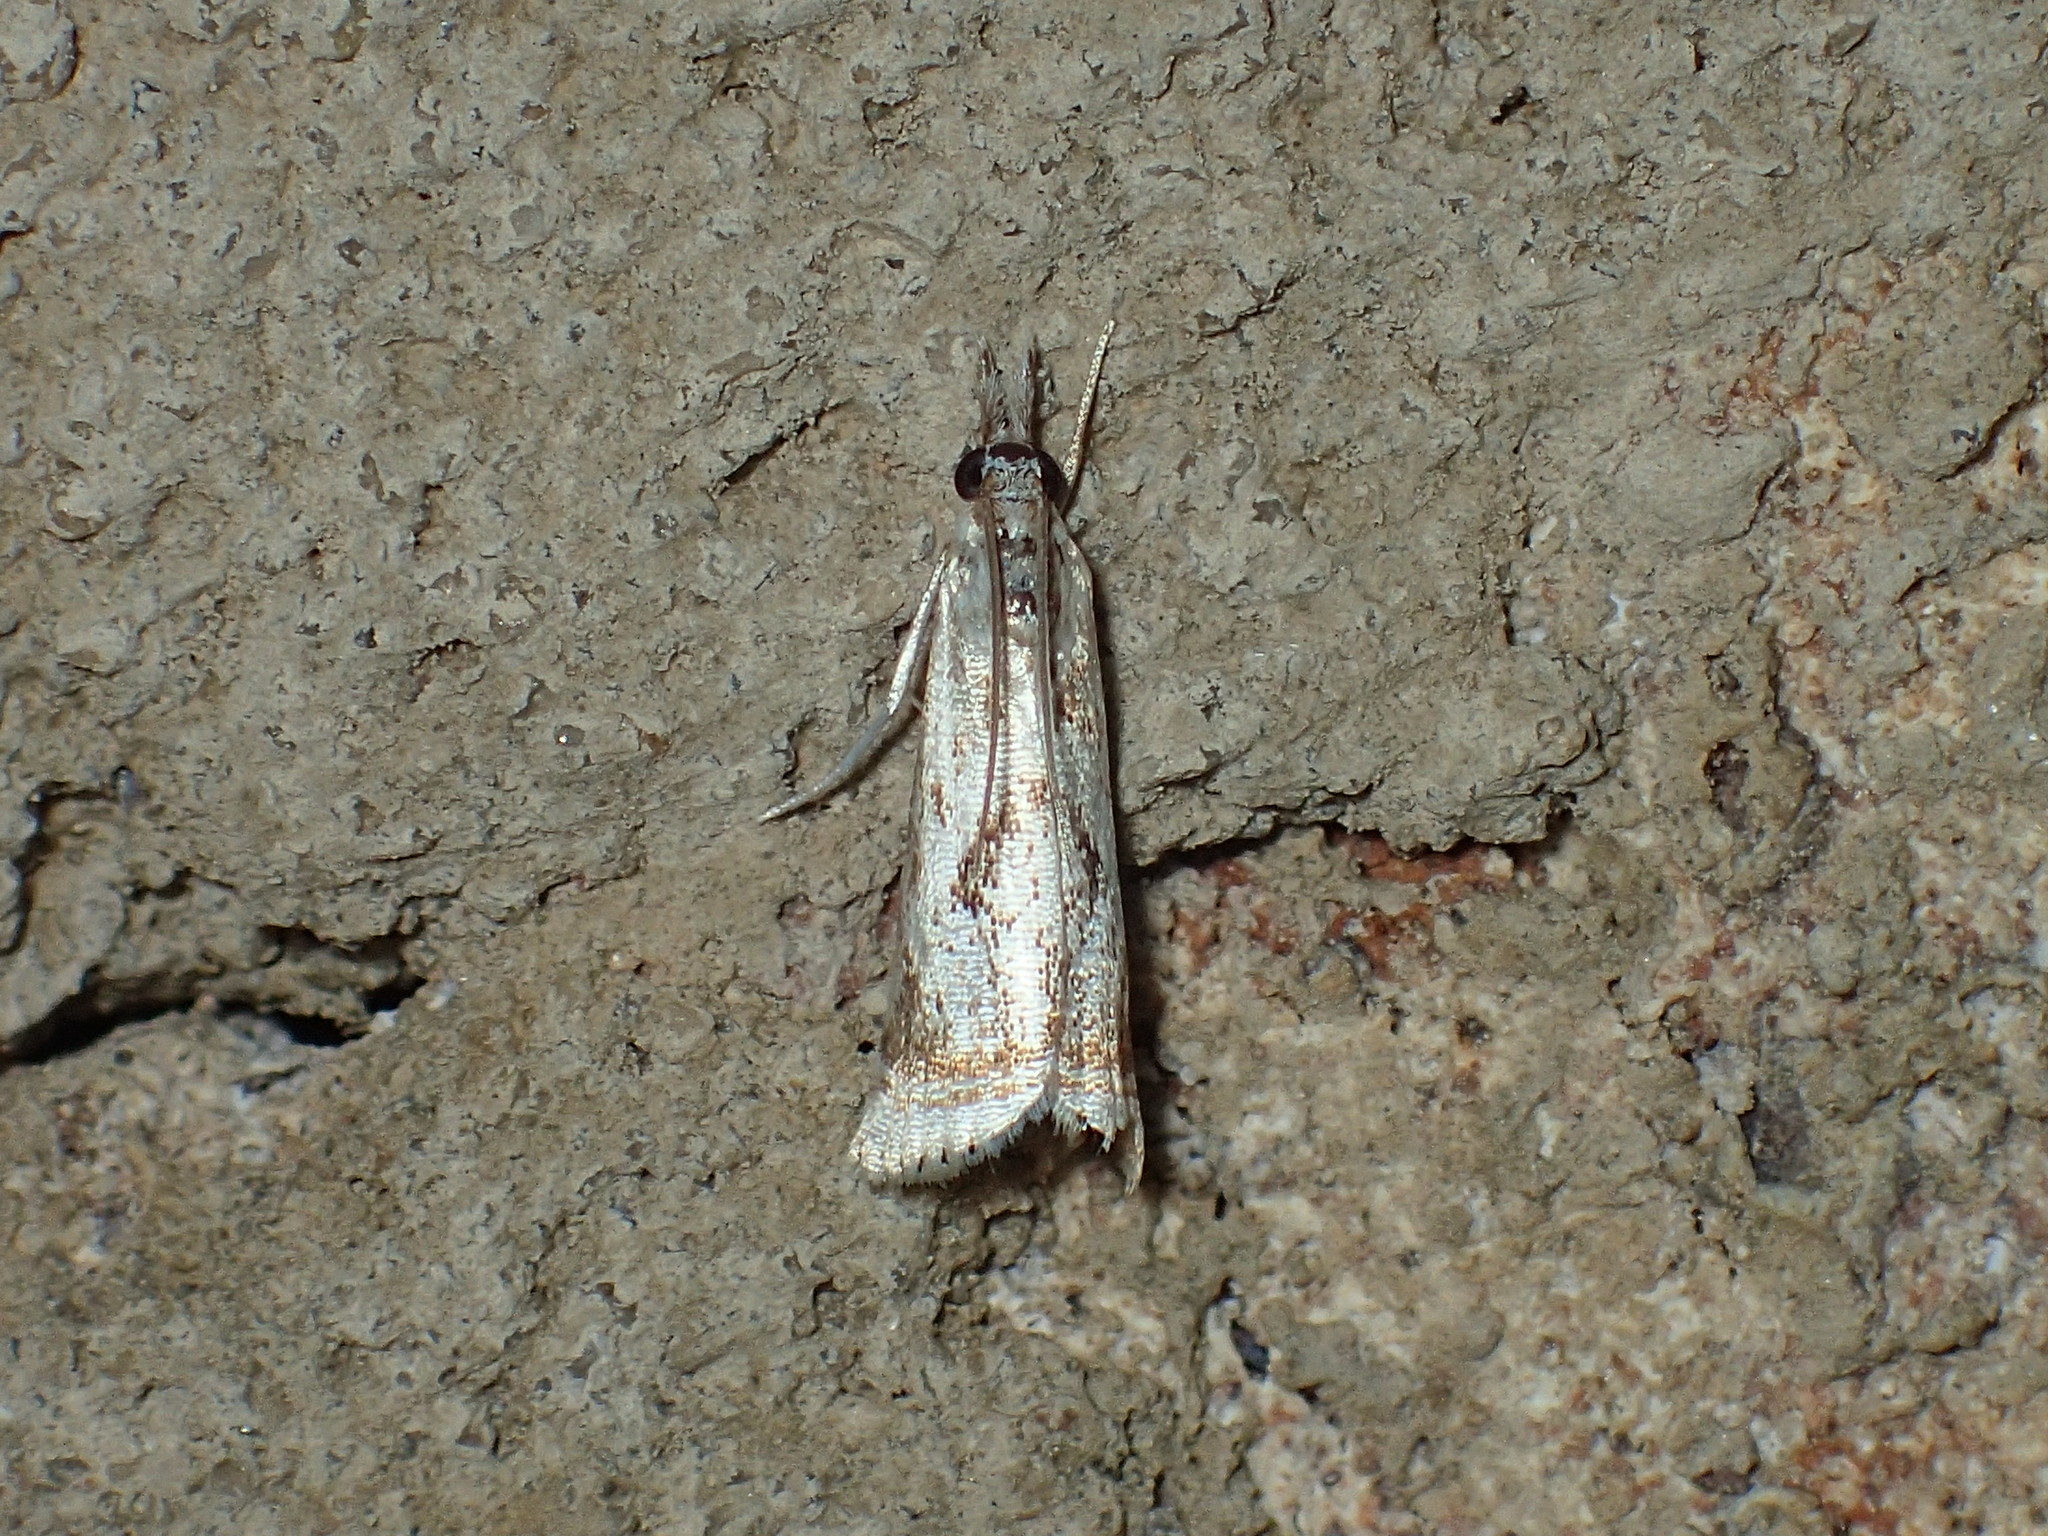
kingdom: Animalia
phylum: Arthropoda
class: Insecta
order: Lepidoptera
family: Crambidae
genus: Microcrambus
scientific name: Microcrambus elegans
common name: Elegant grass-veneer
